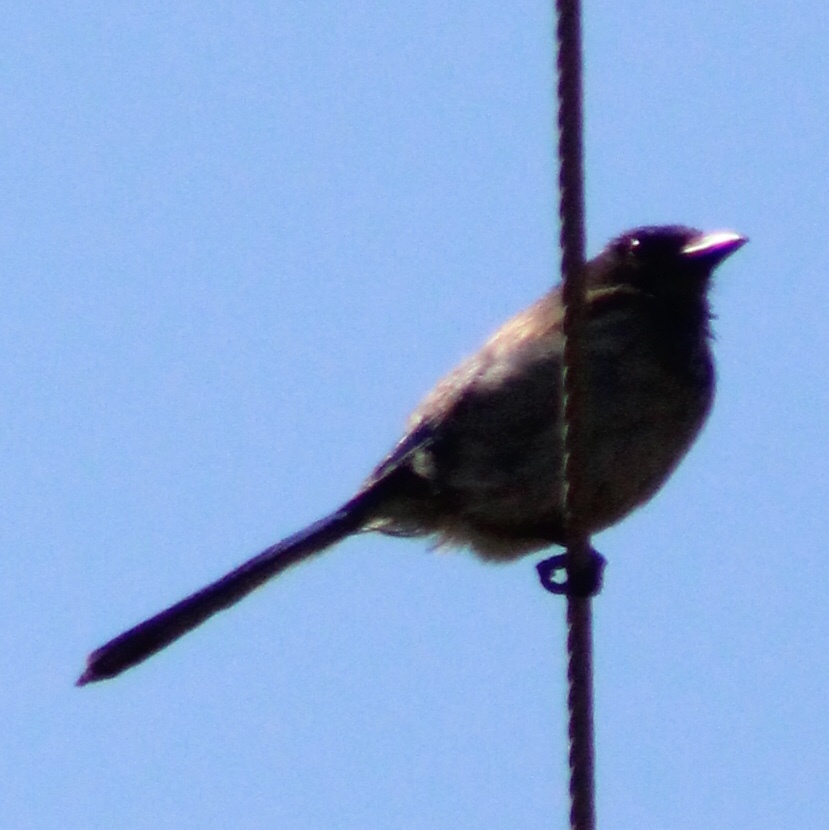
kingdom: Animalia
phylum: Chordata
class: Aves
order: Passeriformes
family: Corvidae
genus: Aphelocoma
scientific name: Aphelocoma californica
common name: California scrub-jay
